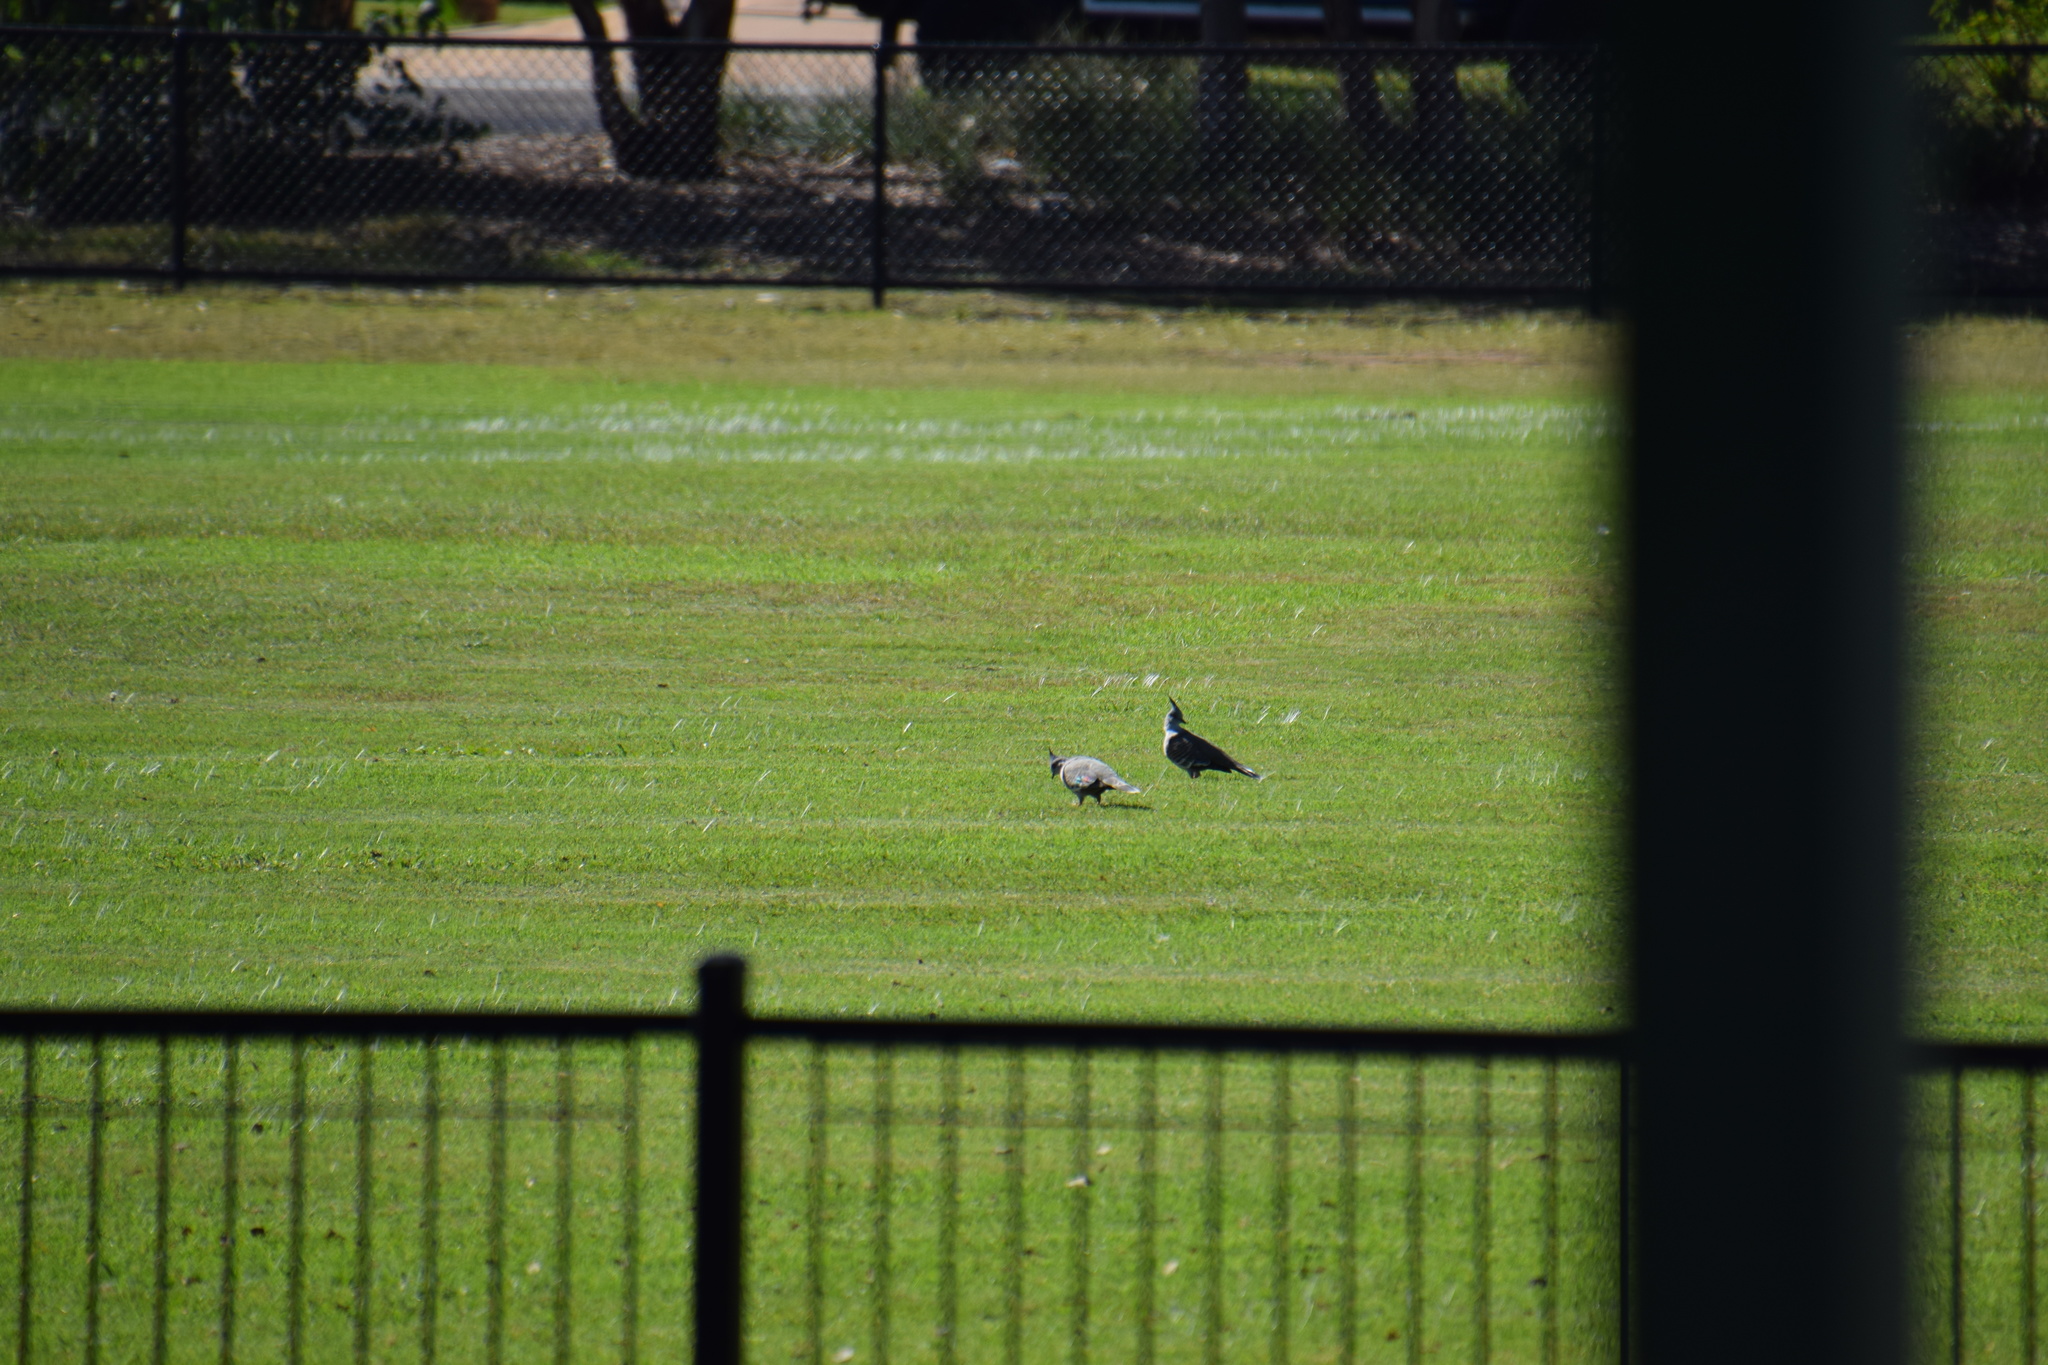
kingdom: Animalia
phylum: Chordata
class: Aves
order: Columbiformes
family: Columbidae
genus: Ocyphaps
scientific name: Ocyphaps lophotes
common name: Crested pigeon
